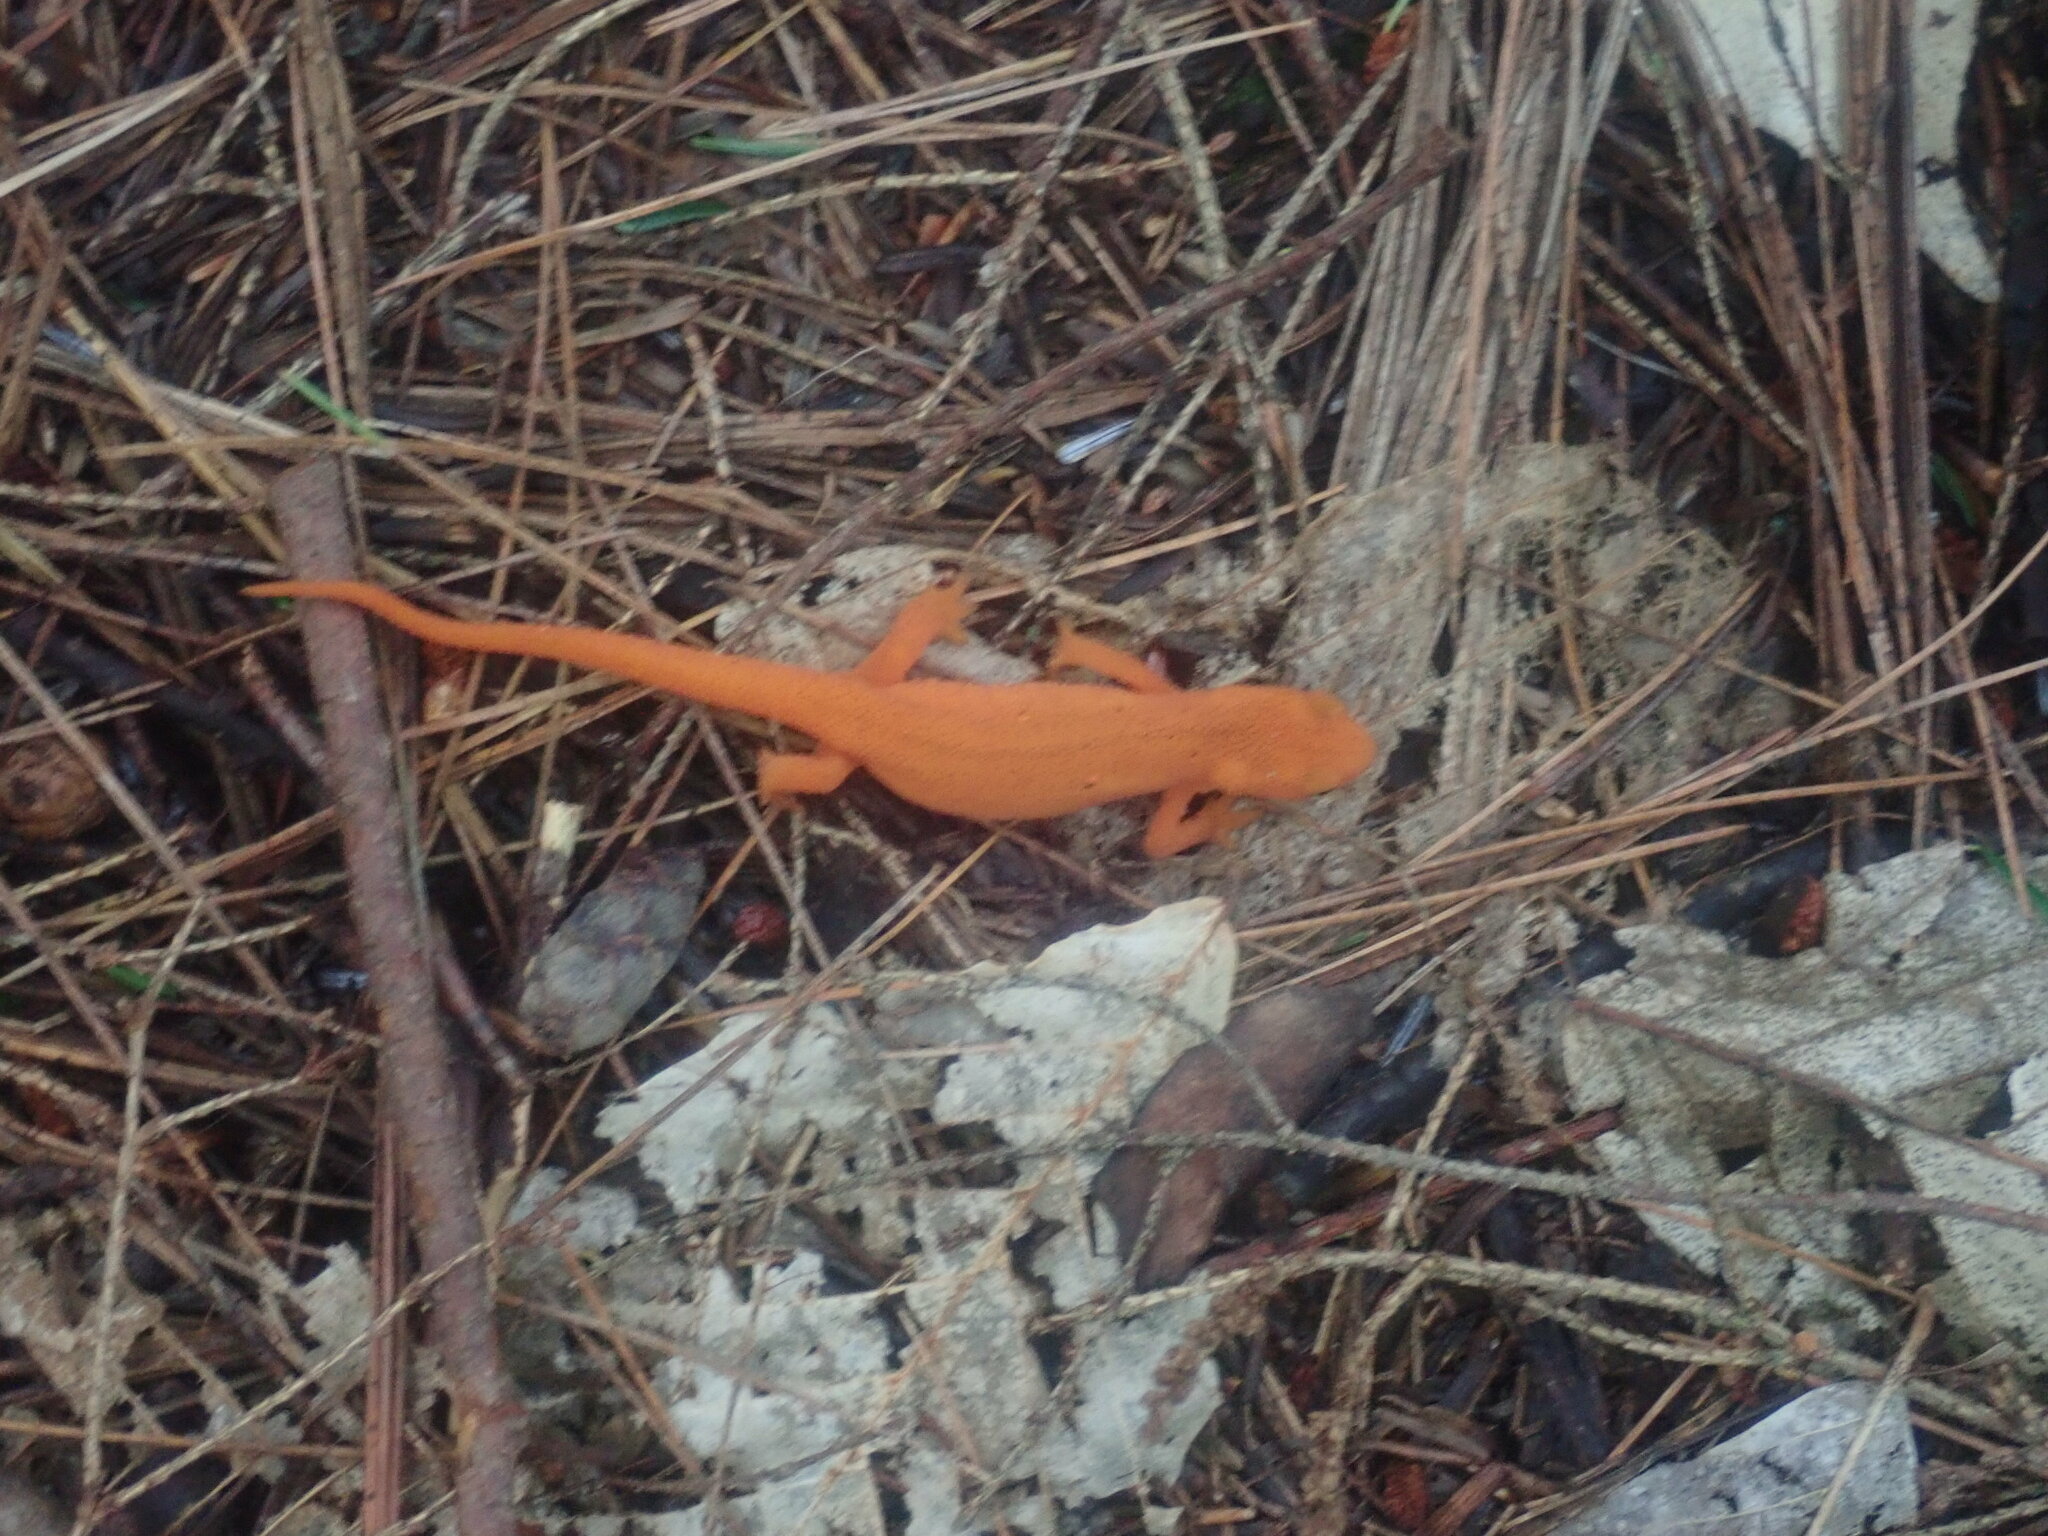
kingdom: Animalia
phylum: Chordata
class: Amphibia
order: Caudata
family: Salamandridae
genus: Notophthalmus
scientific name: Notophthalmus viridescens
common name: Eastern newt
